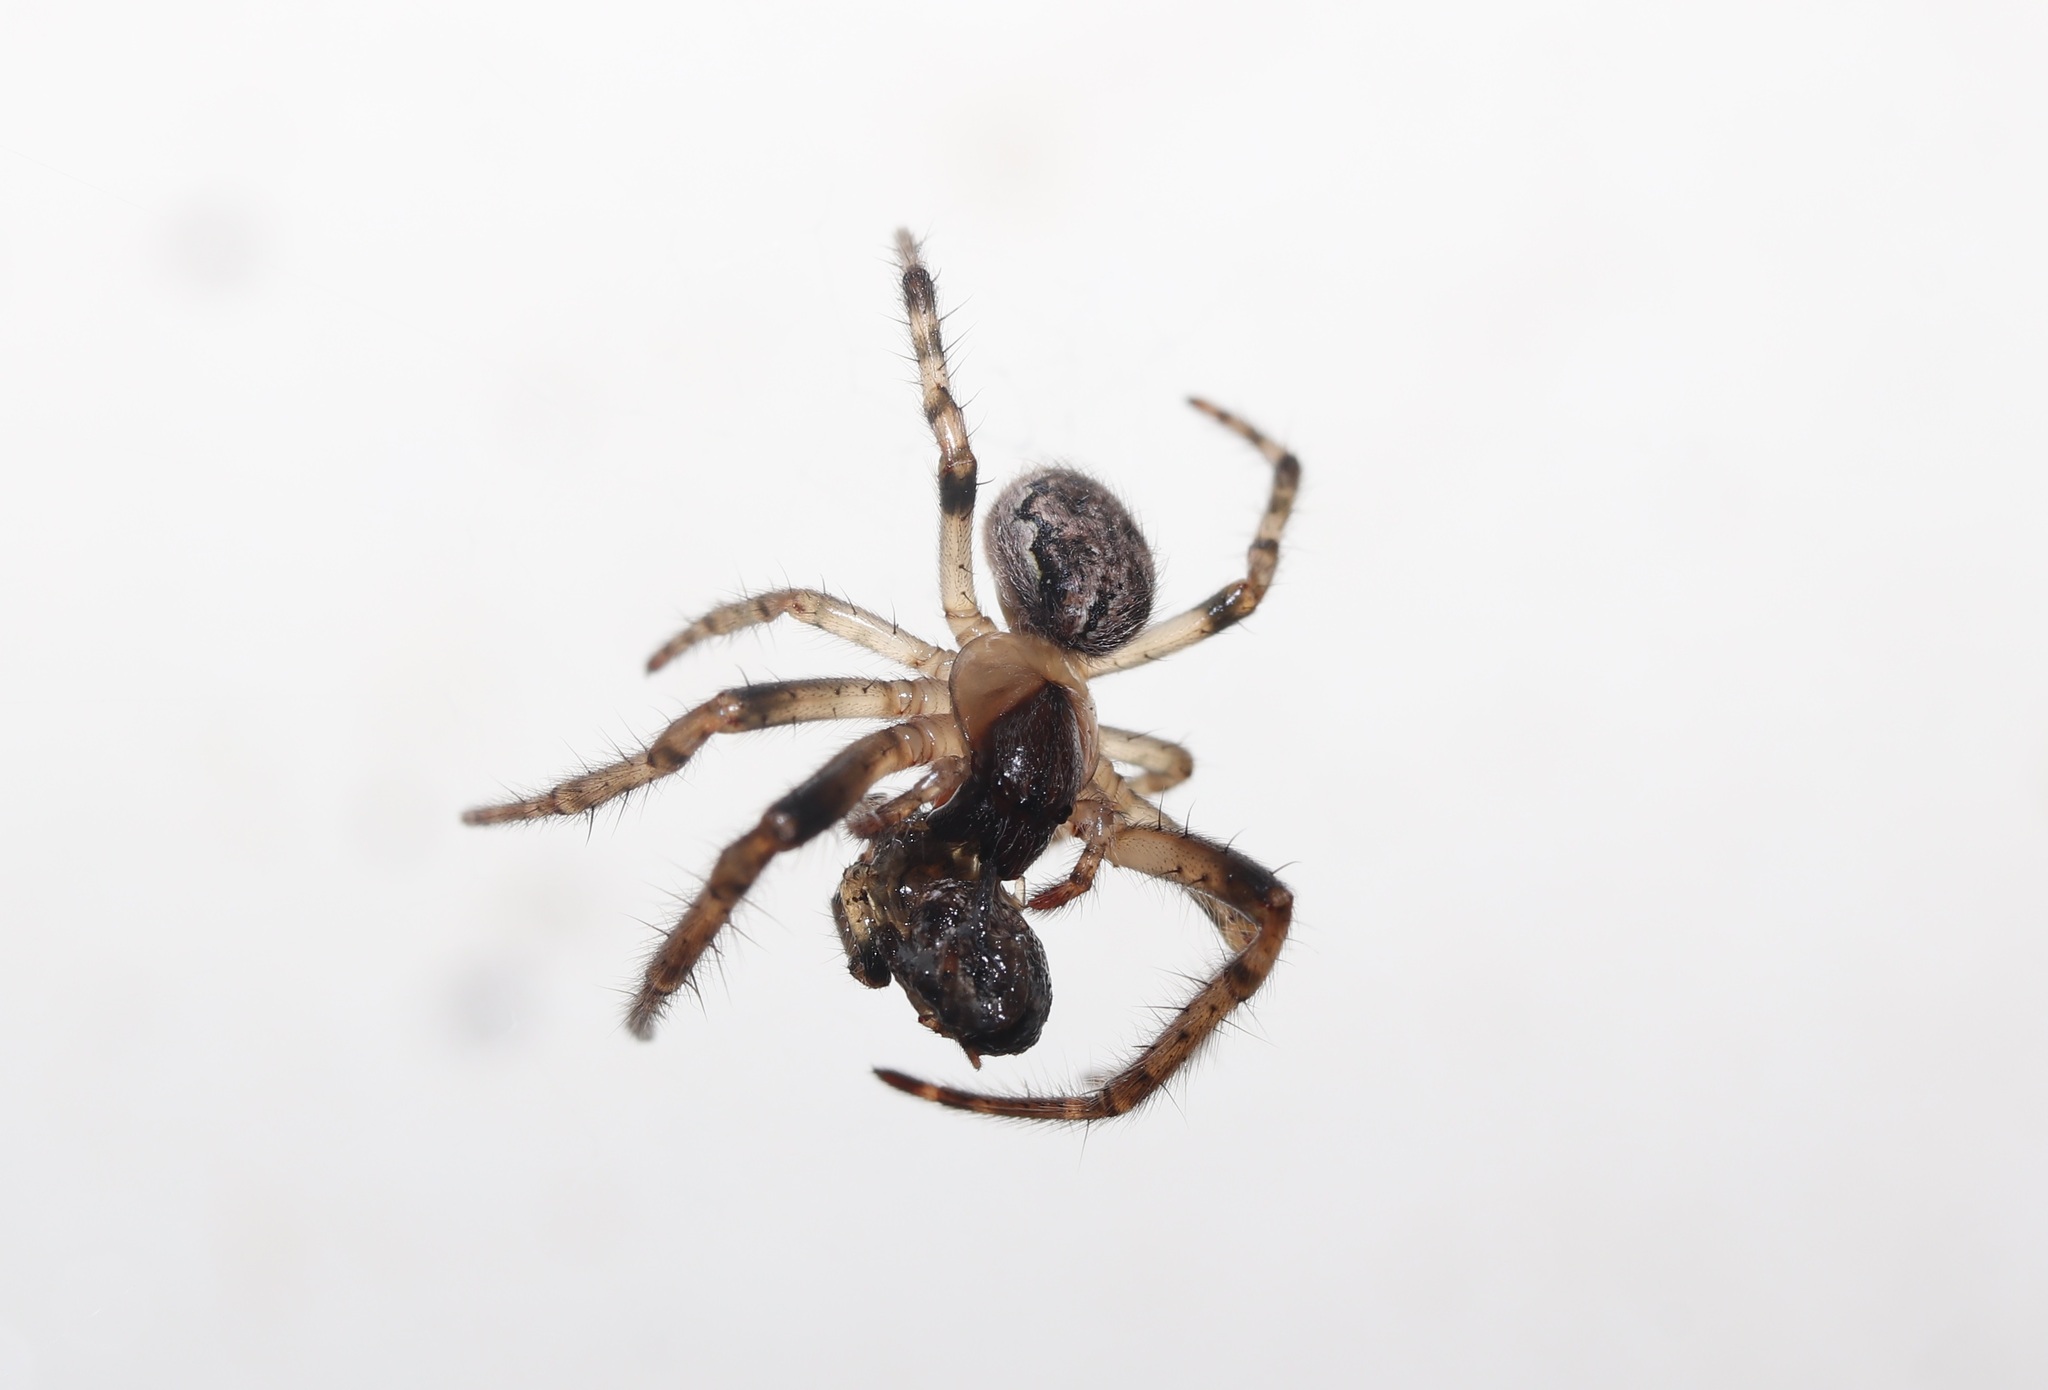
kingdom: Animalia
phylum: Arthropoda
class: Arachnida
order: Araneae
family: Araneidae
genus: Yaginumia
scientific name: Yaginumia sia
